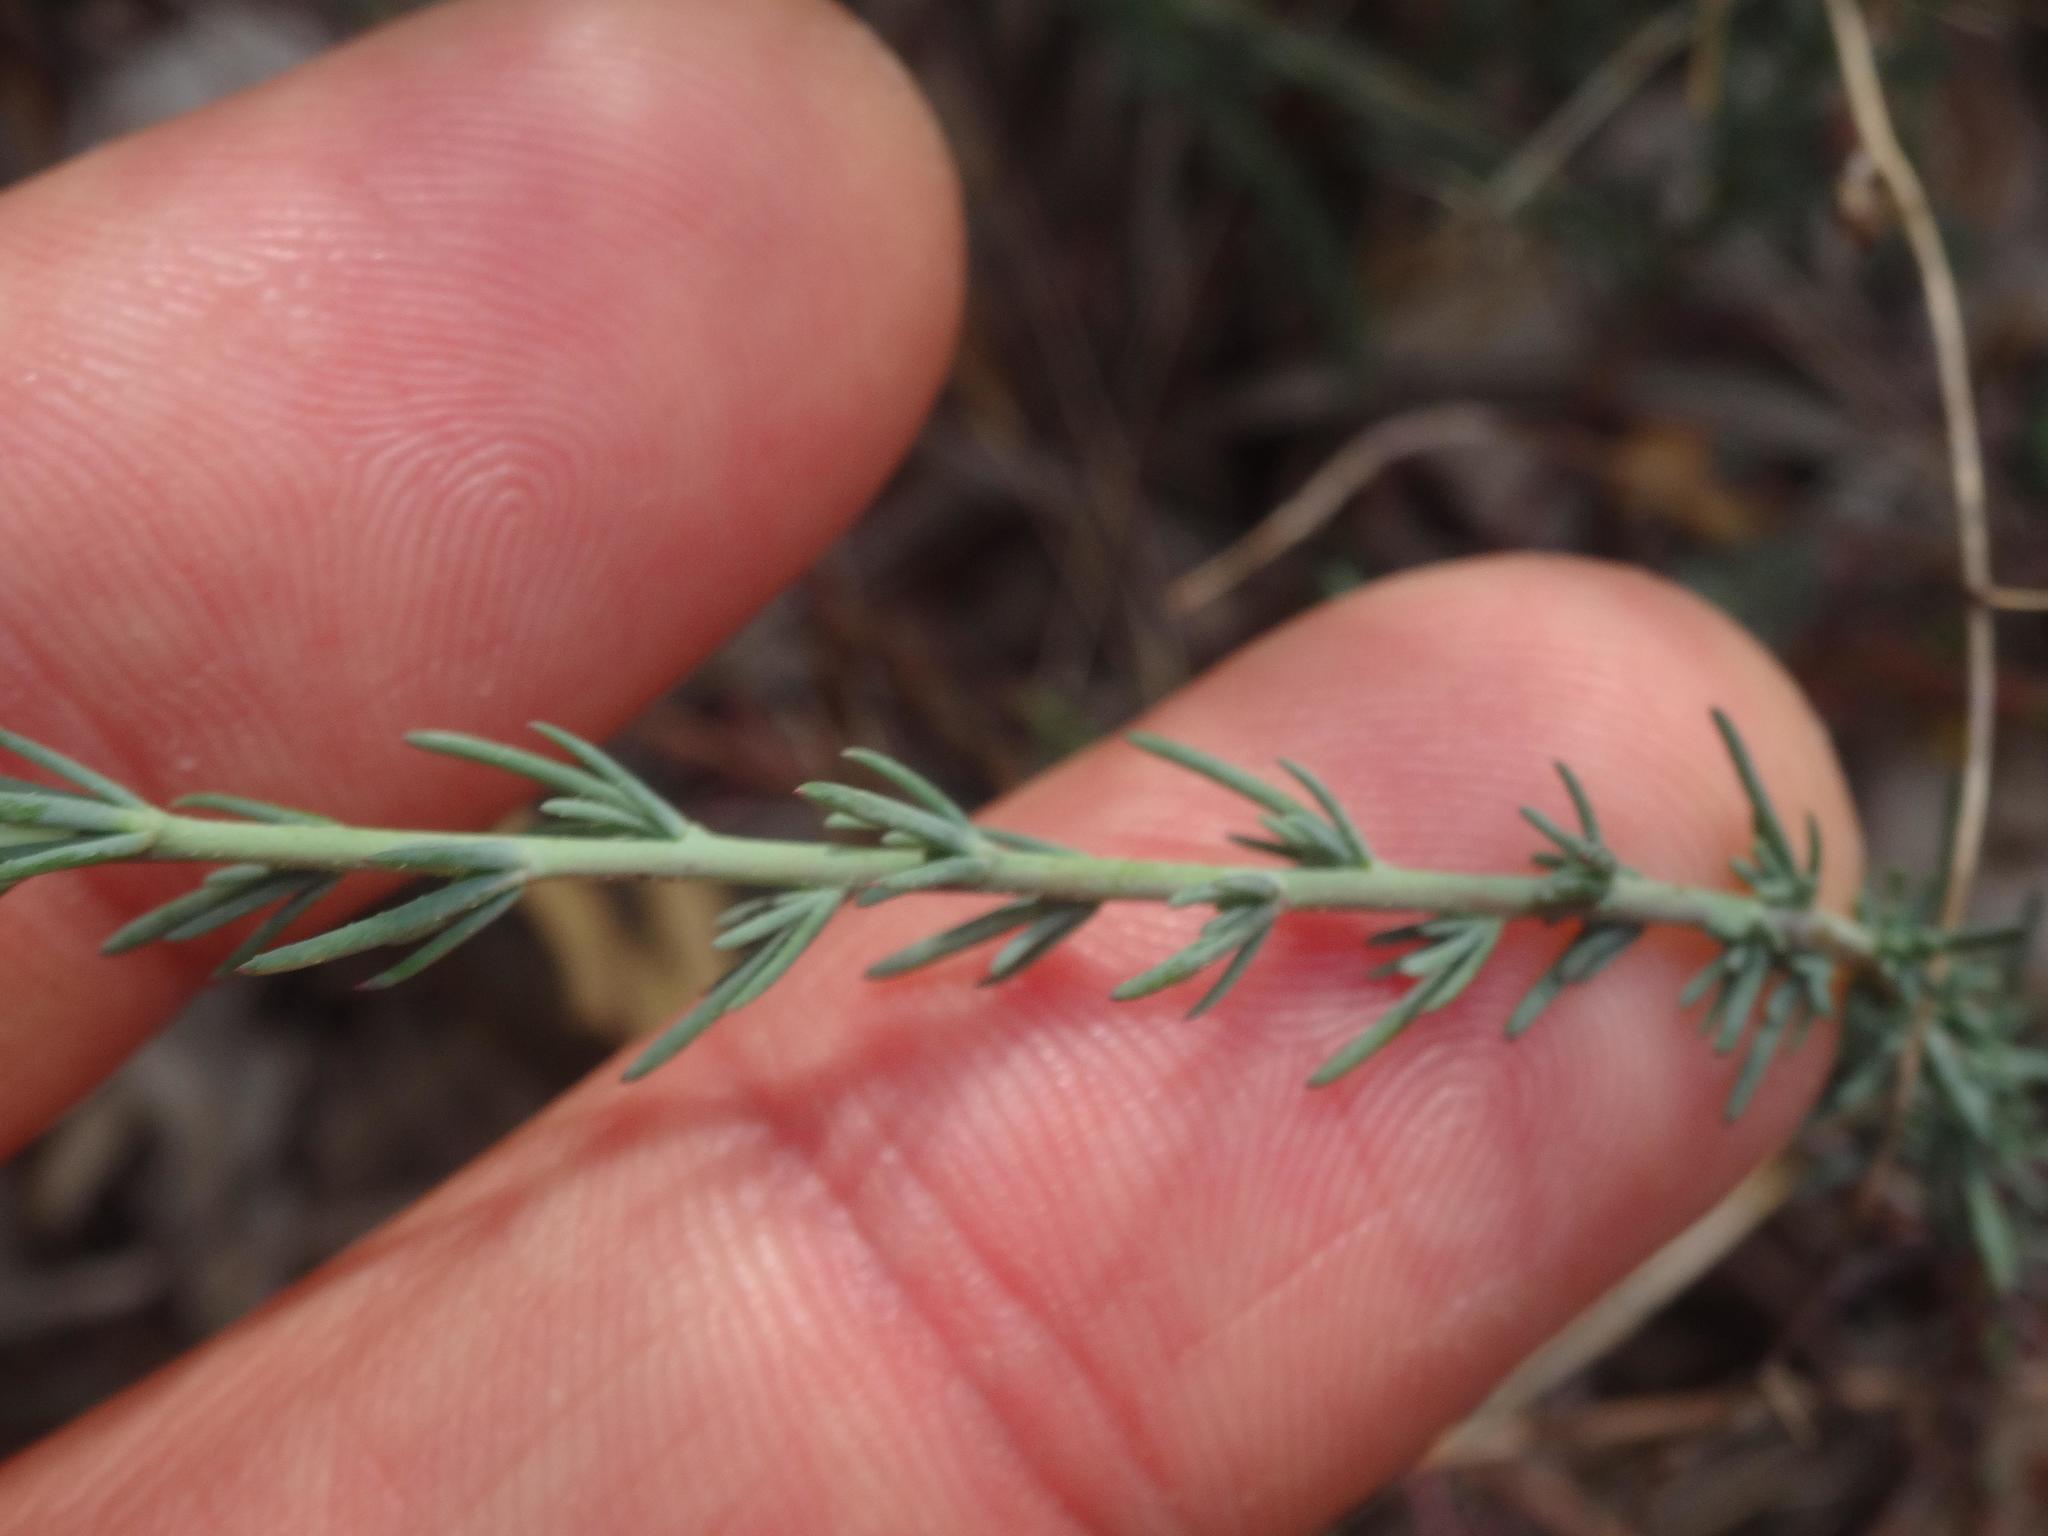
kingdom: Plantae
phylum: Tracheophyta
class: Magnoliopsida
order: Malvales
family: Cistaceae
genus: Fumana
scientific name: Fumana laevipes
